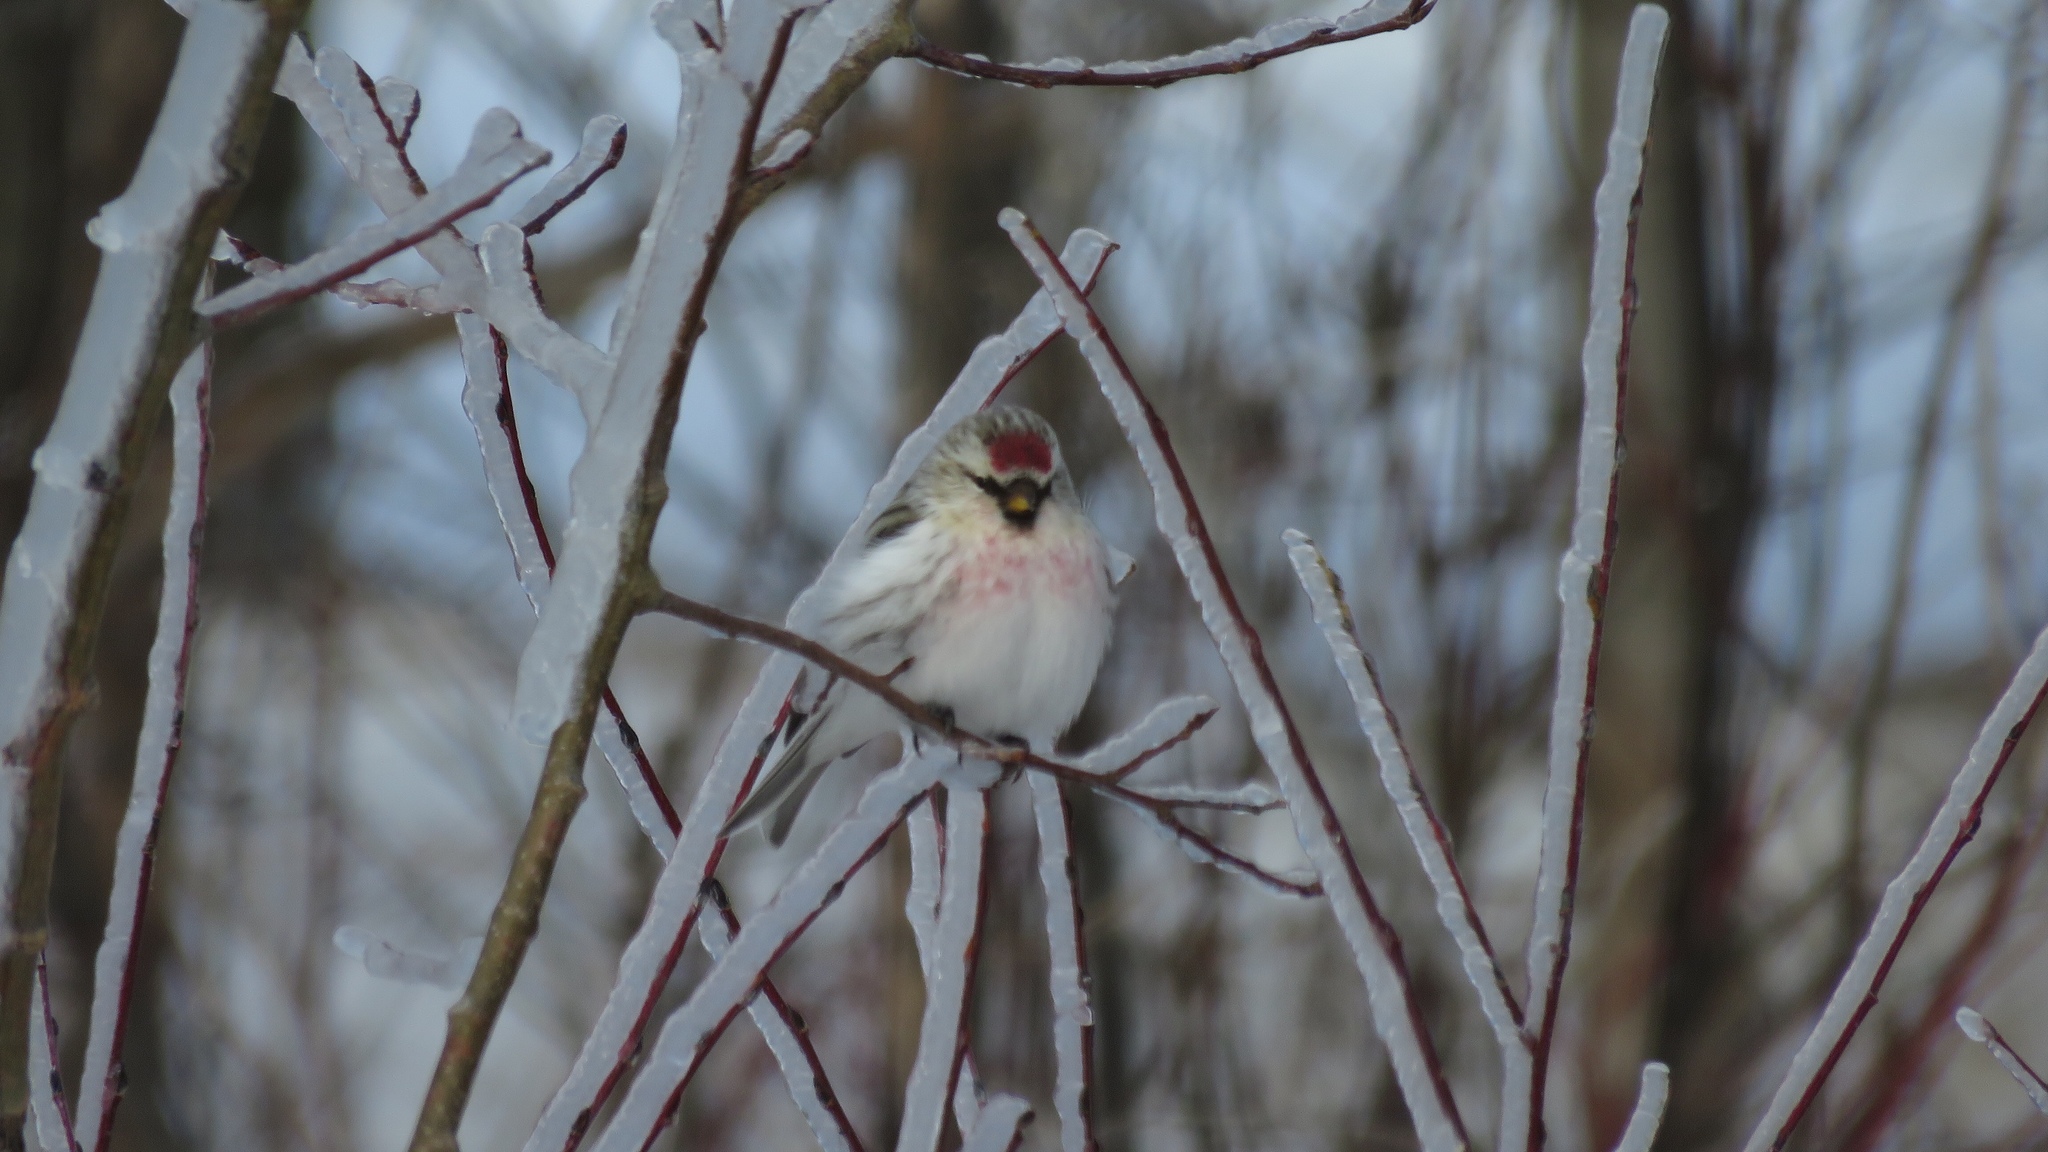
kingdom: Animalia
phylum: Chordata
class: Aves
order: Passeriformes
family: Fringillidae
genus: Acanthis
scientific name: Acanthis hornemanni
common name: Arctic redpoll
